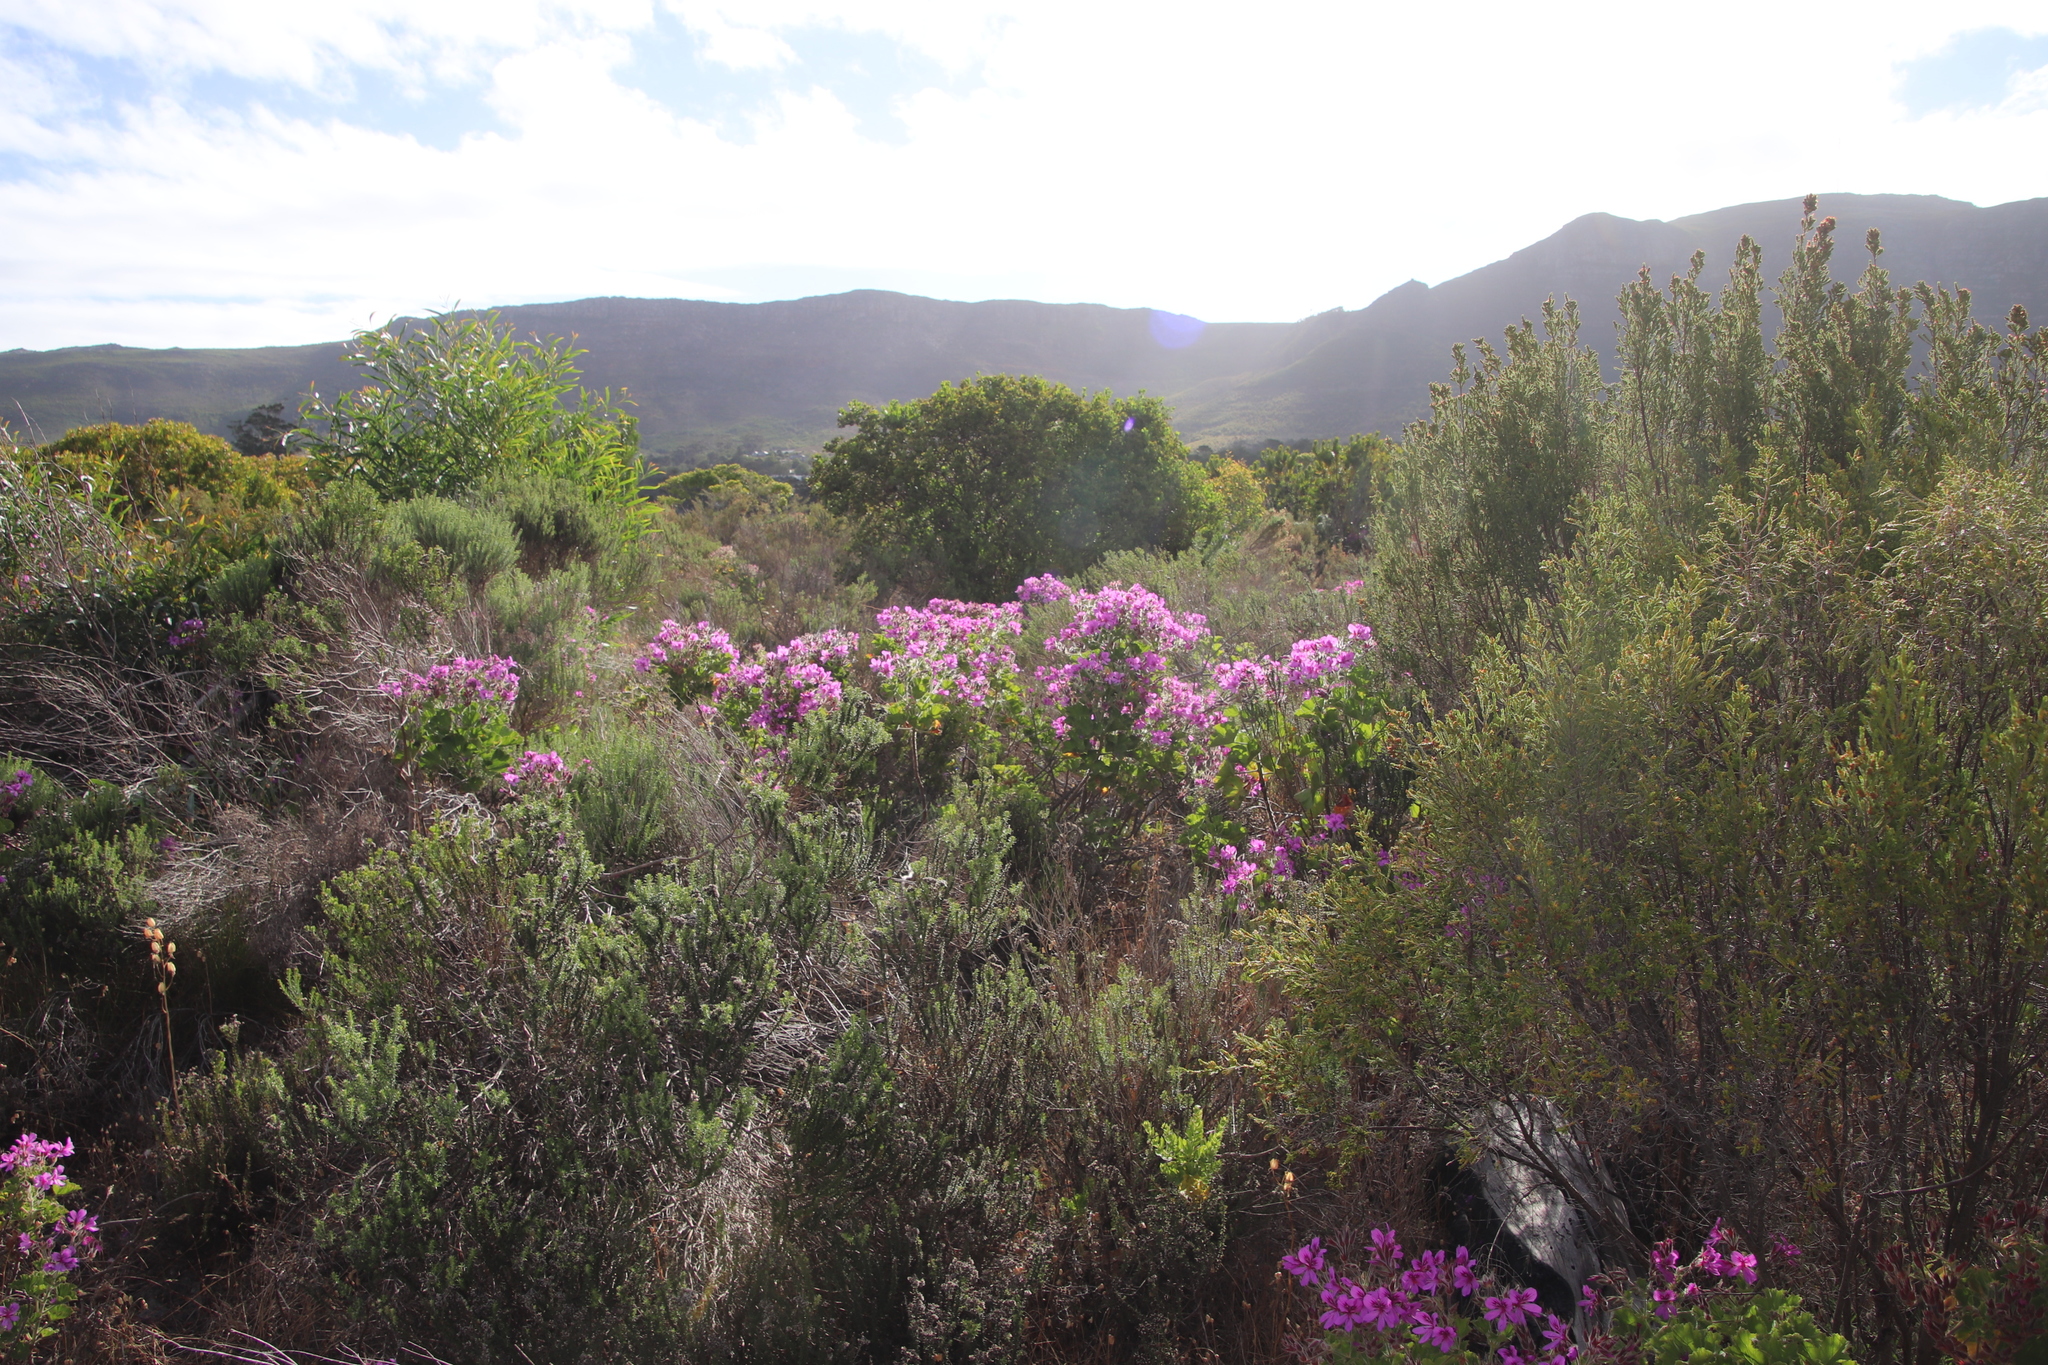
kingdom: Plantae
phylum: Tracheophyta
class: Magnoliopsida
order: Geraniales
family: Geraniaceae
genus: Pelargonium
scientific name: Pelargonium cucullatum
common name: Tree pelargonium
